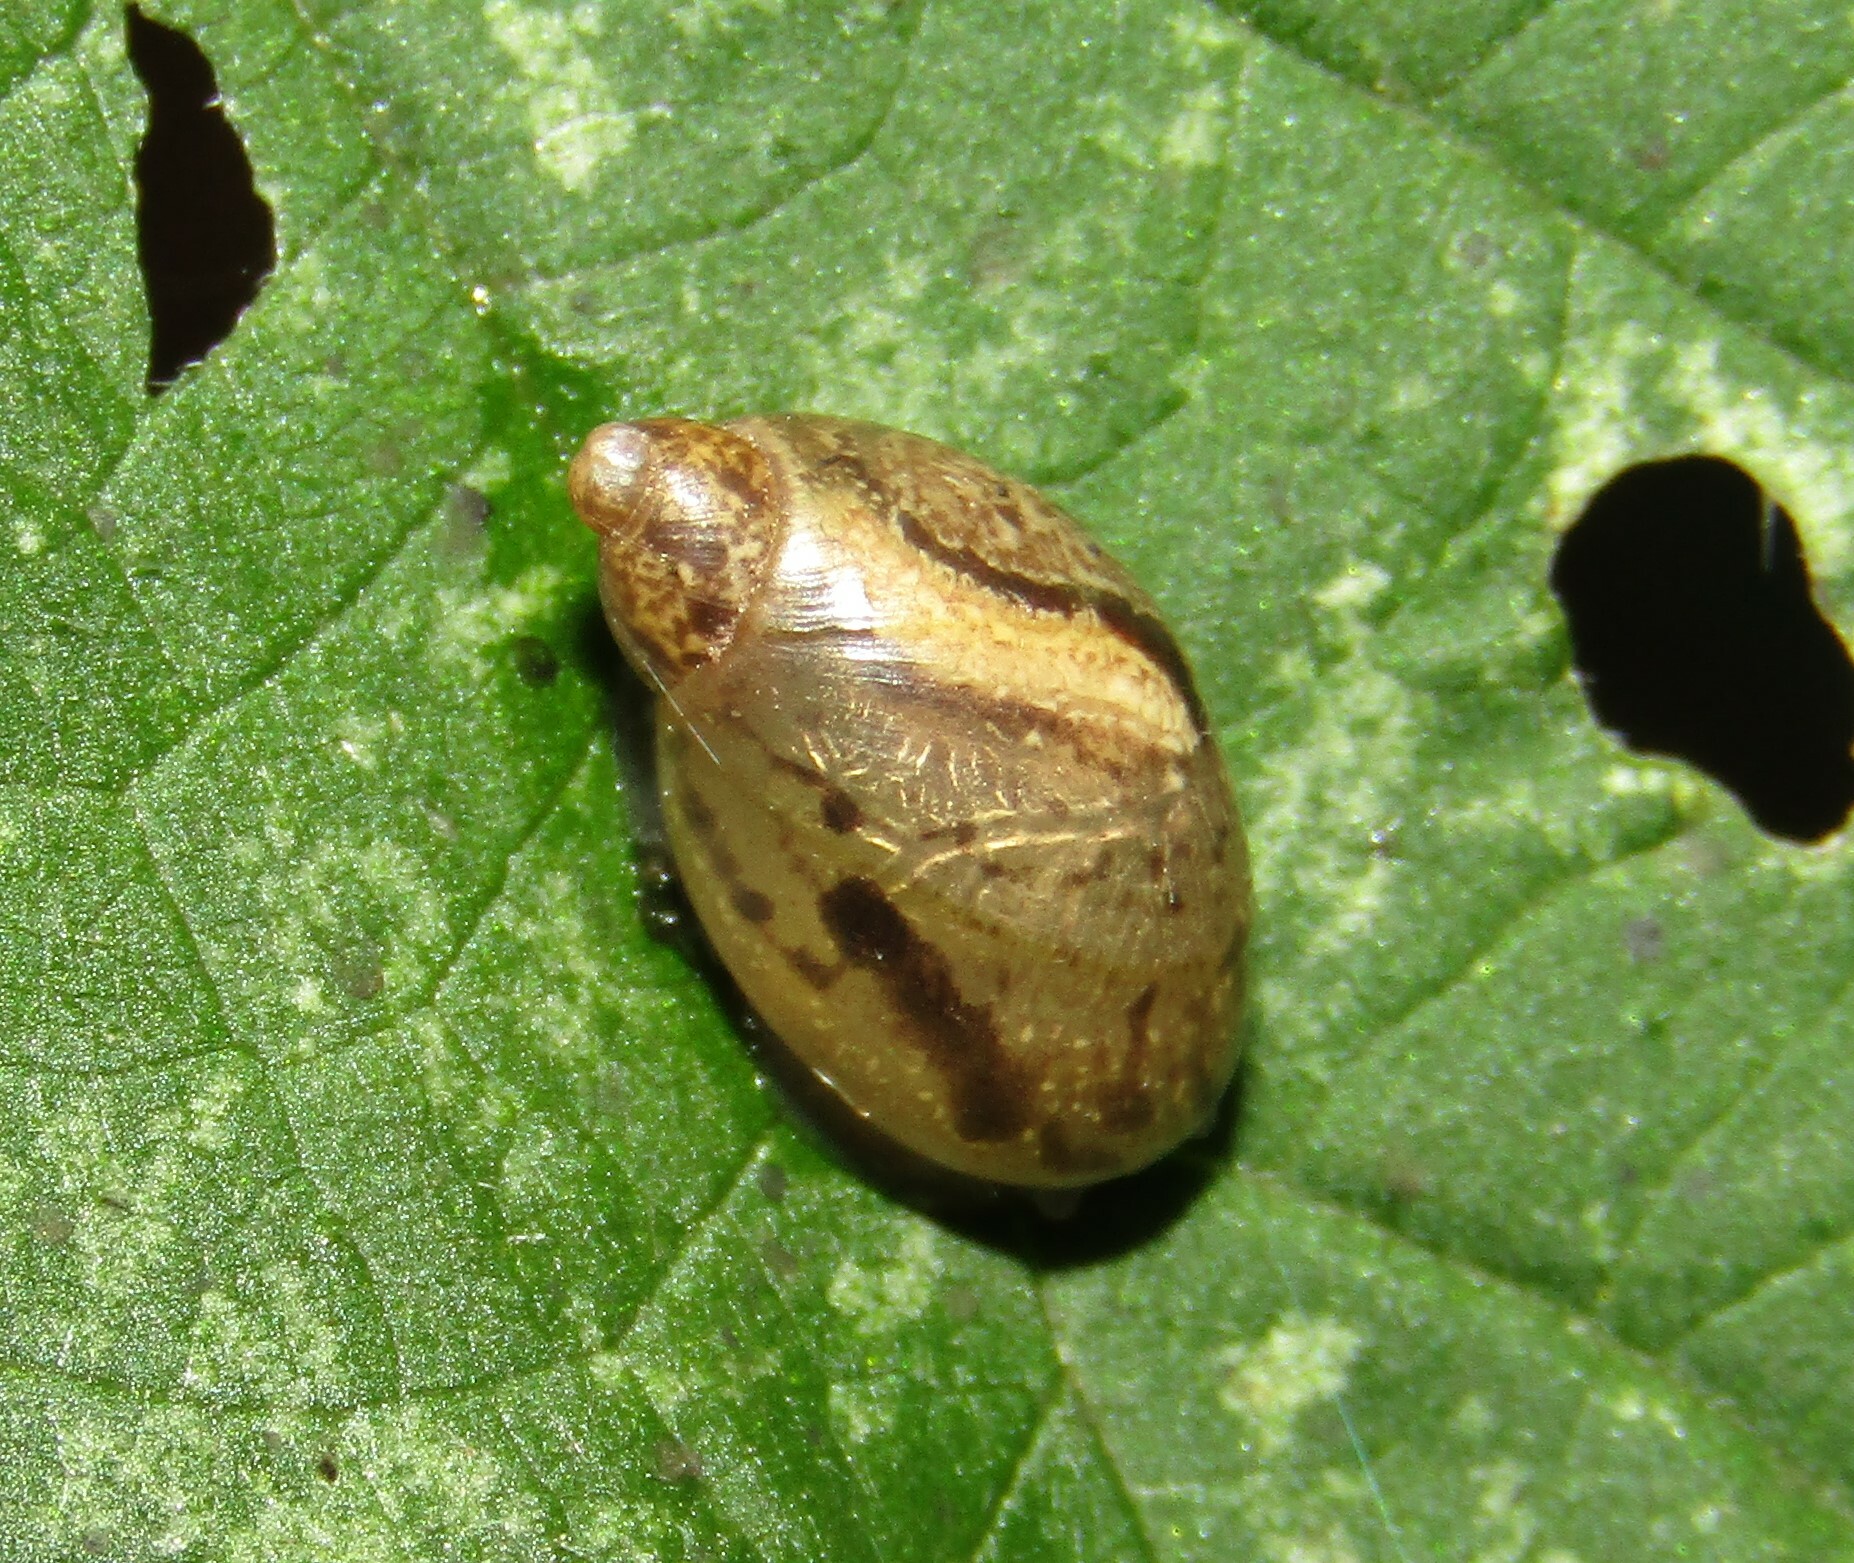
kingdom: Animalia
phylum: Mollusca
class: Gastropoda
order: Stylommatophora
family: Succineidae
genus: Succinea
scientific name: Succinea putris
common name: European ambersnail
